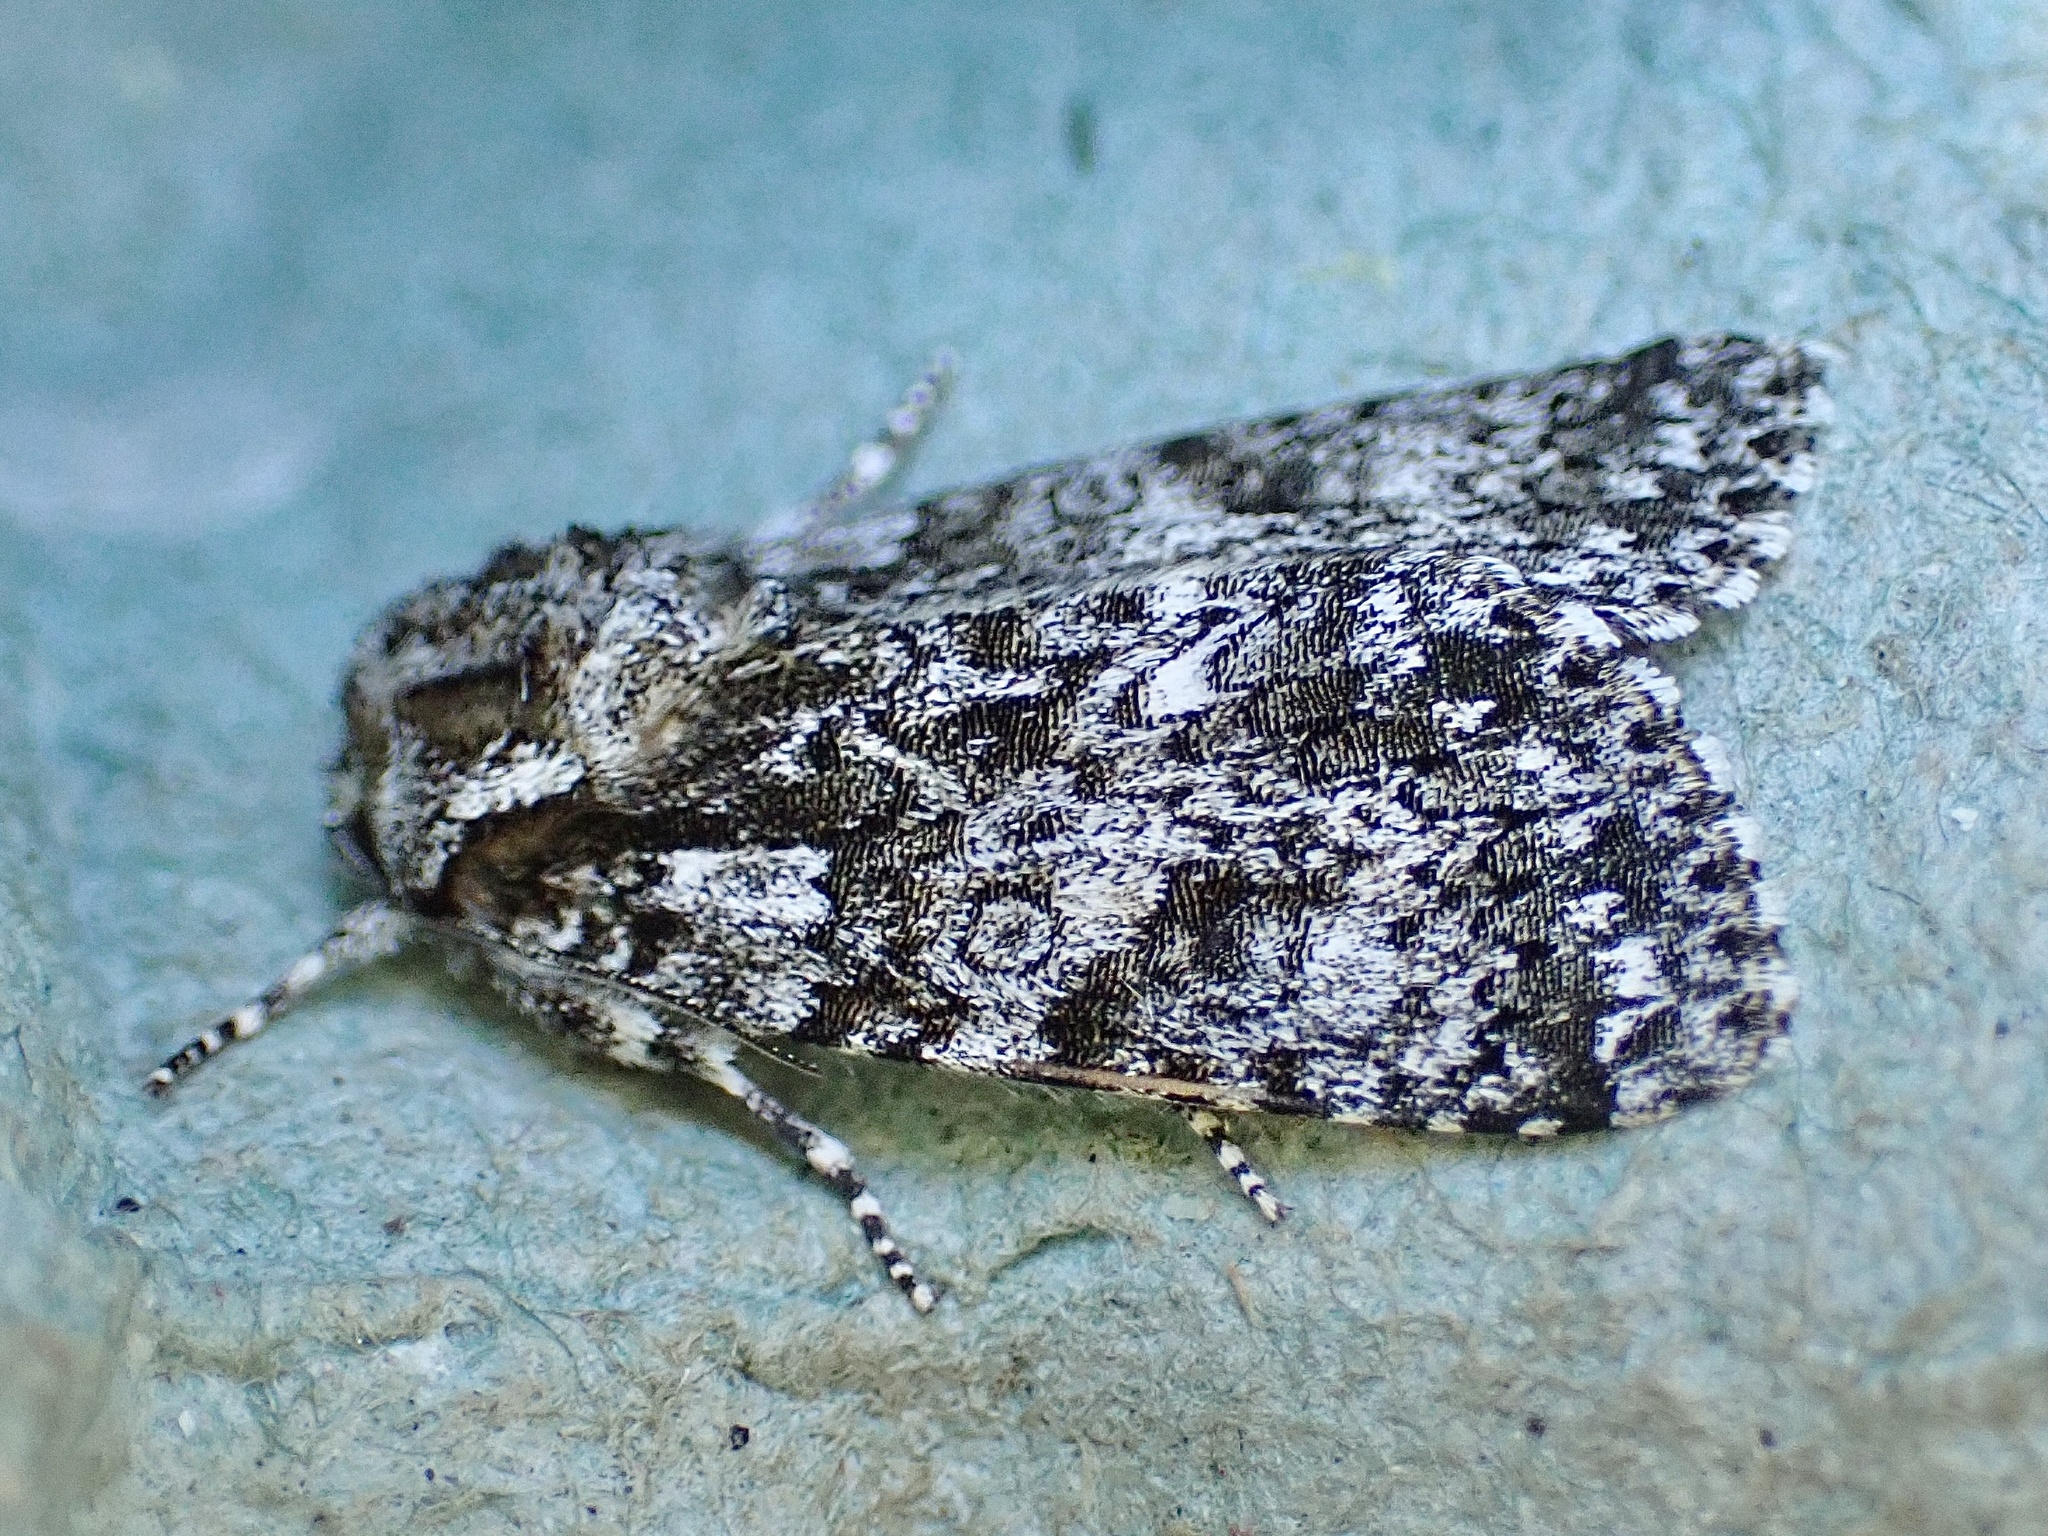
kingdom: Animalia
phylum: Arthropoda
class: Insecta
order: Lepidoptera
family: Noctuidae
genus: Acronicta
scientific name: Acronicta rumicis
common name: Knot grass
